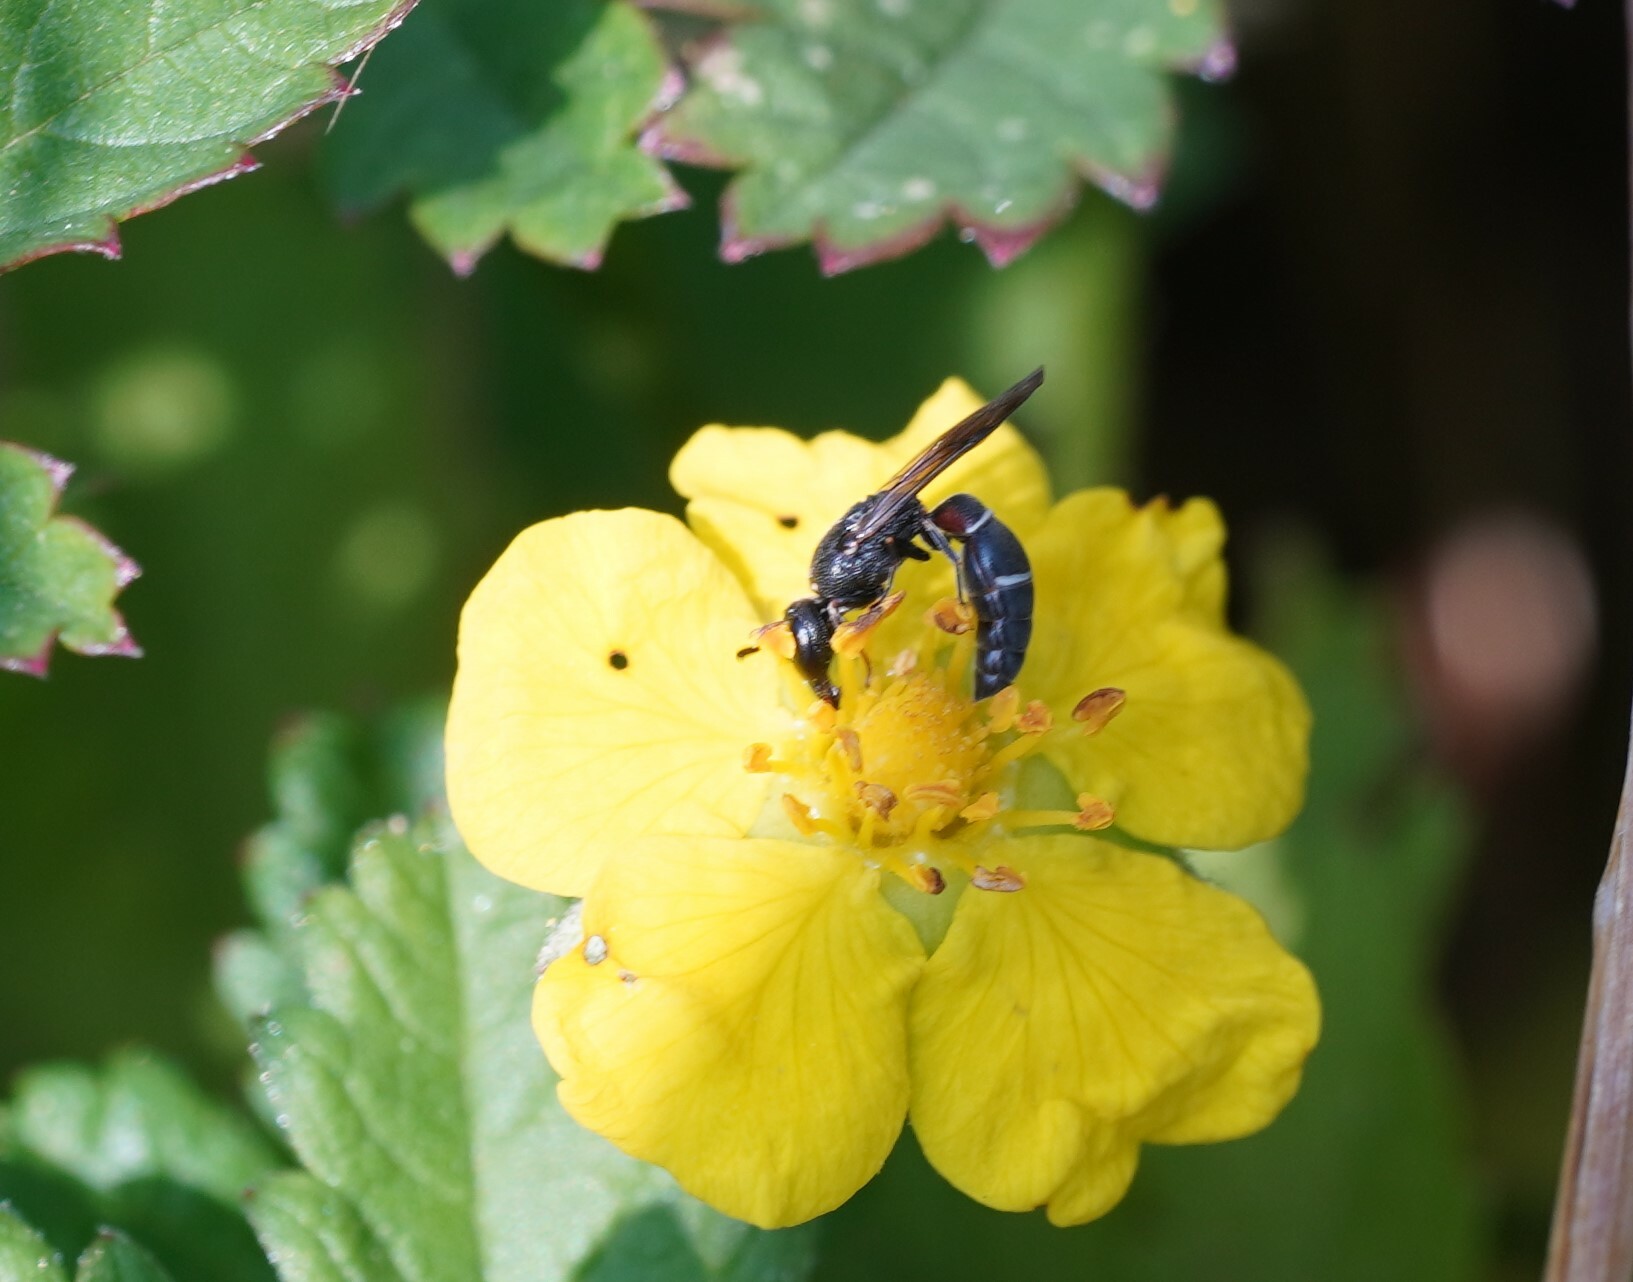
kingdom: Animalia
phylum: Arthropoda
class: Insecta
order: Hymenoptera
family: Eumenidae
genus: Microdynerus
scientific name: Microdynerus timidus
